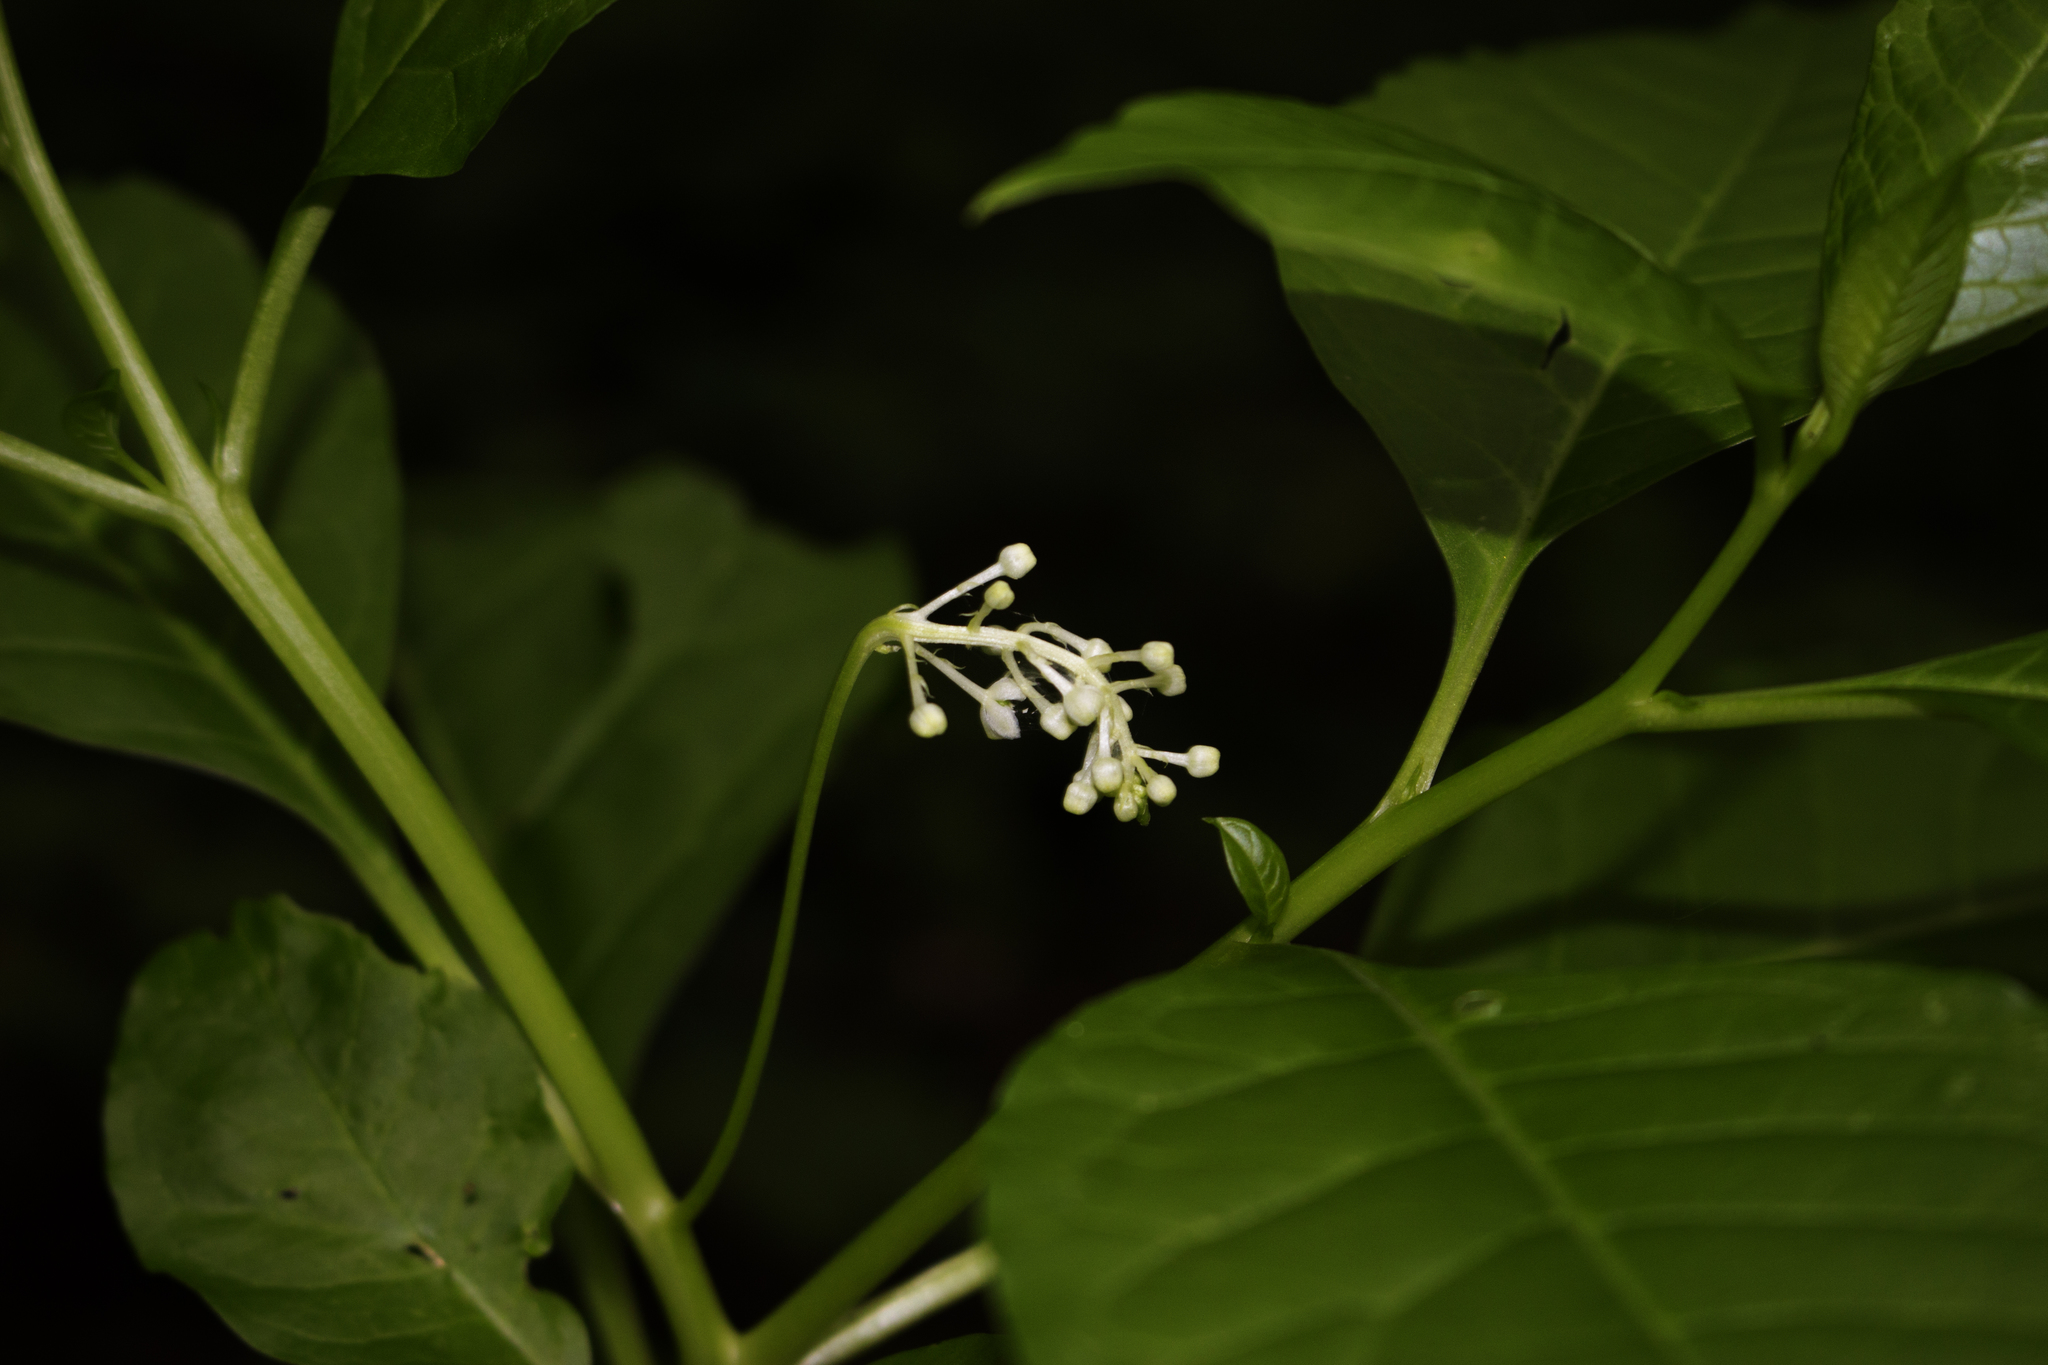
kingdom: Plantae
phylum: Tracheophyta
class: Magnoliopsida
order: Caryophyllales
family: Phytolaccaceae
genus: Phytolacca
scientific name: Phytolacca americana
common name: American pokeweed
